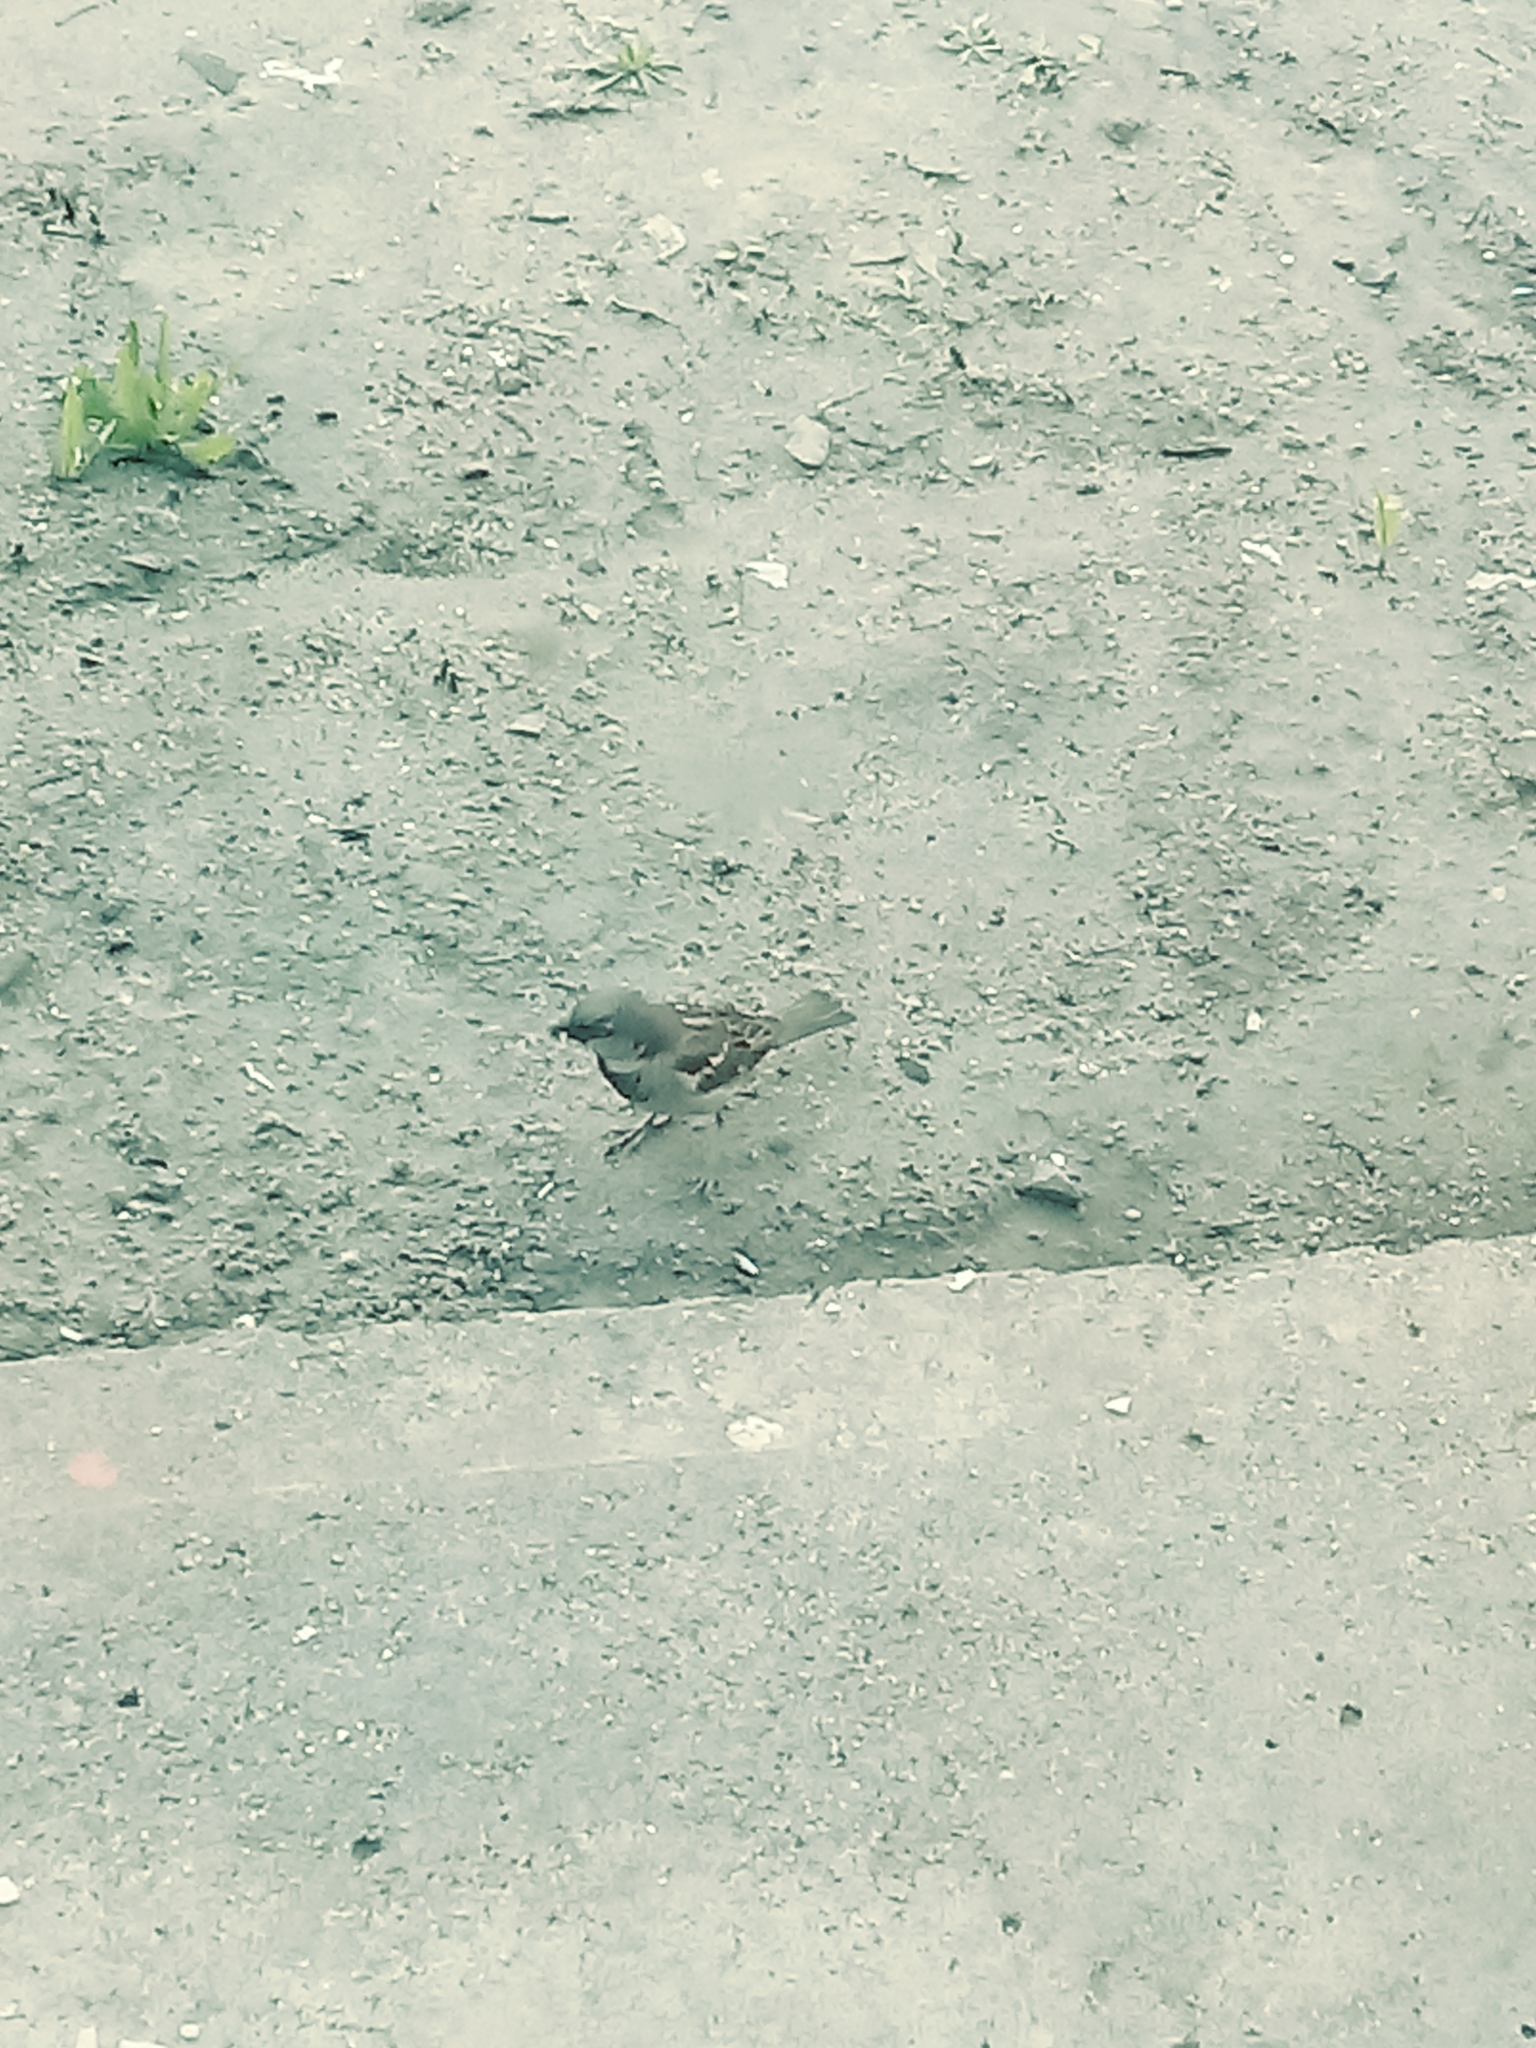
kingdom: Animalia
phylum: Chordata
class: Aves
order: Passeriformes
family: Passeridae
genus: Passer
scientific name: Passer domesticus
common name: House sparrow
